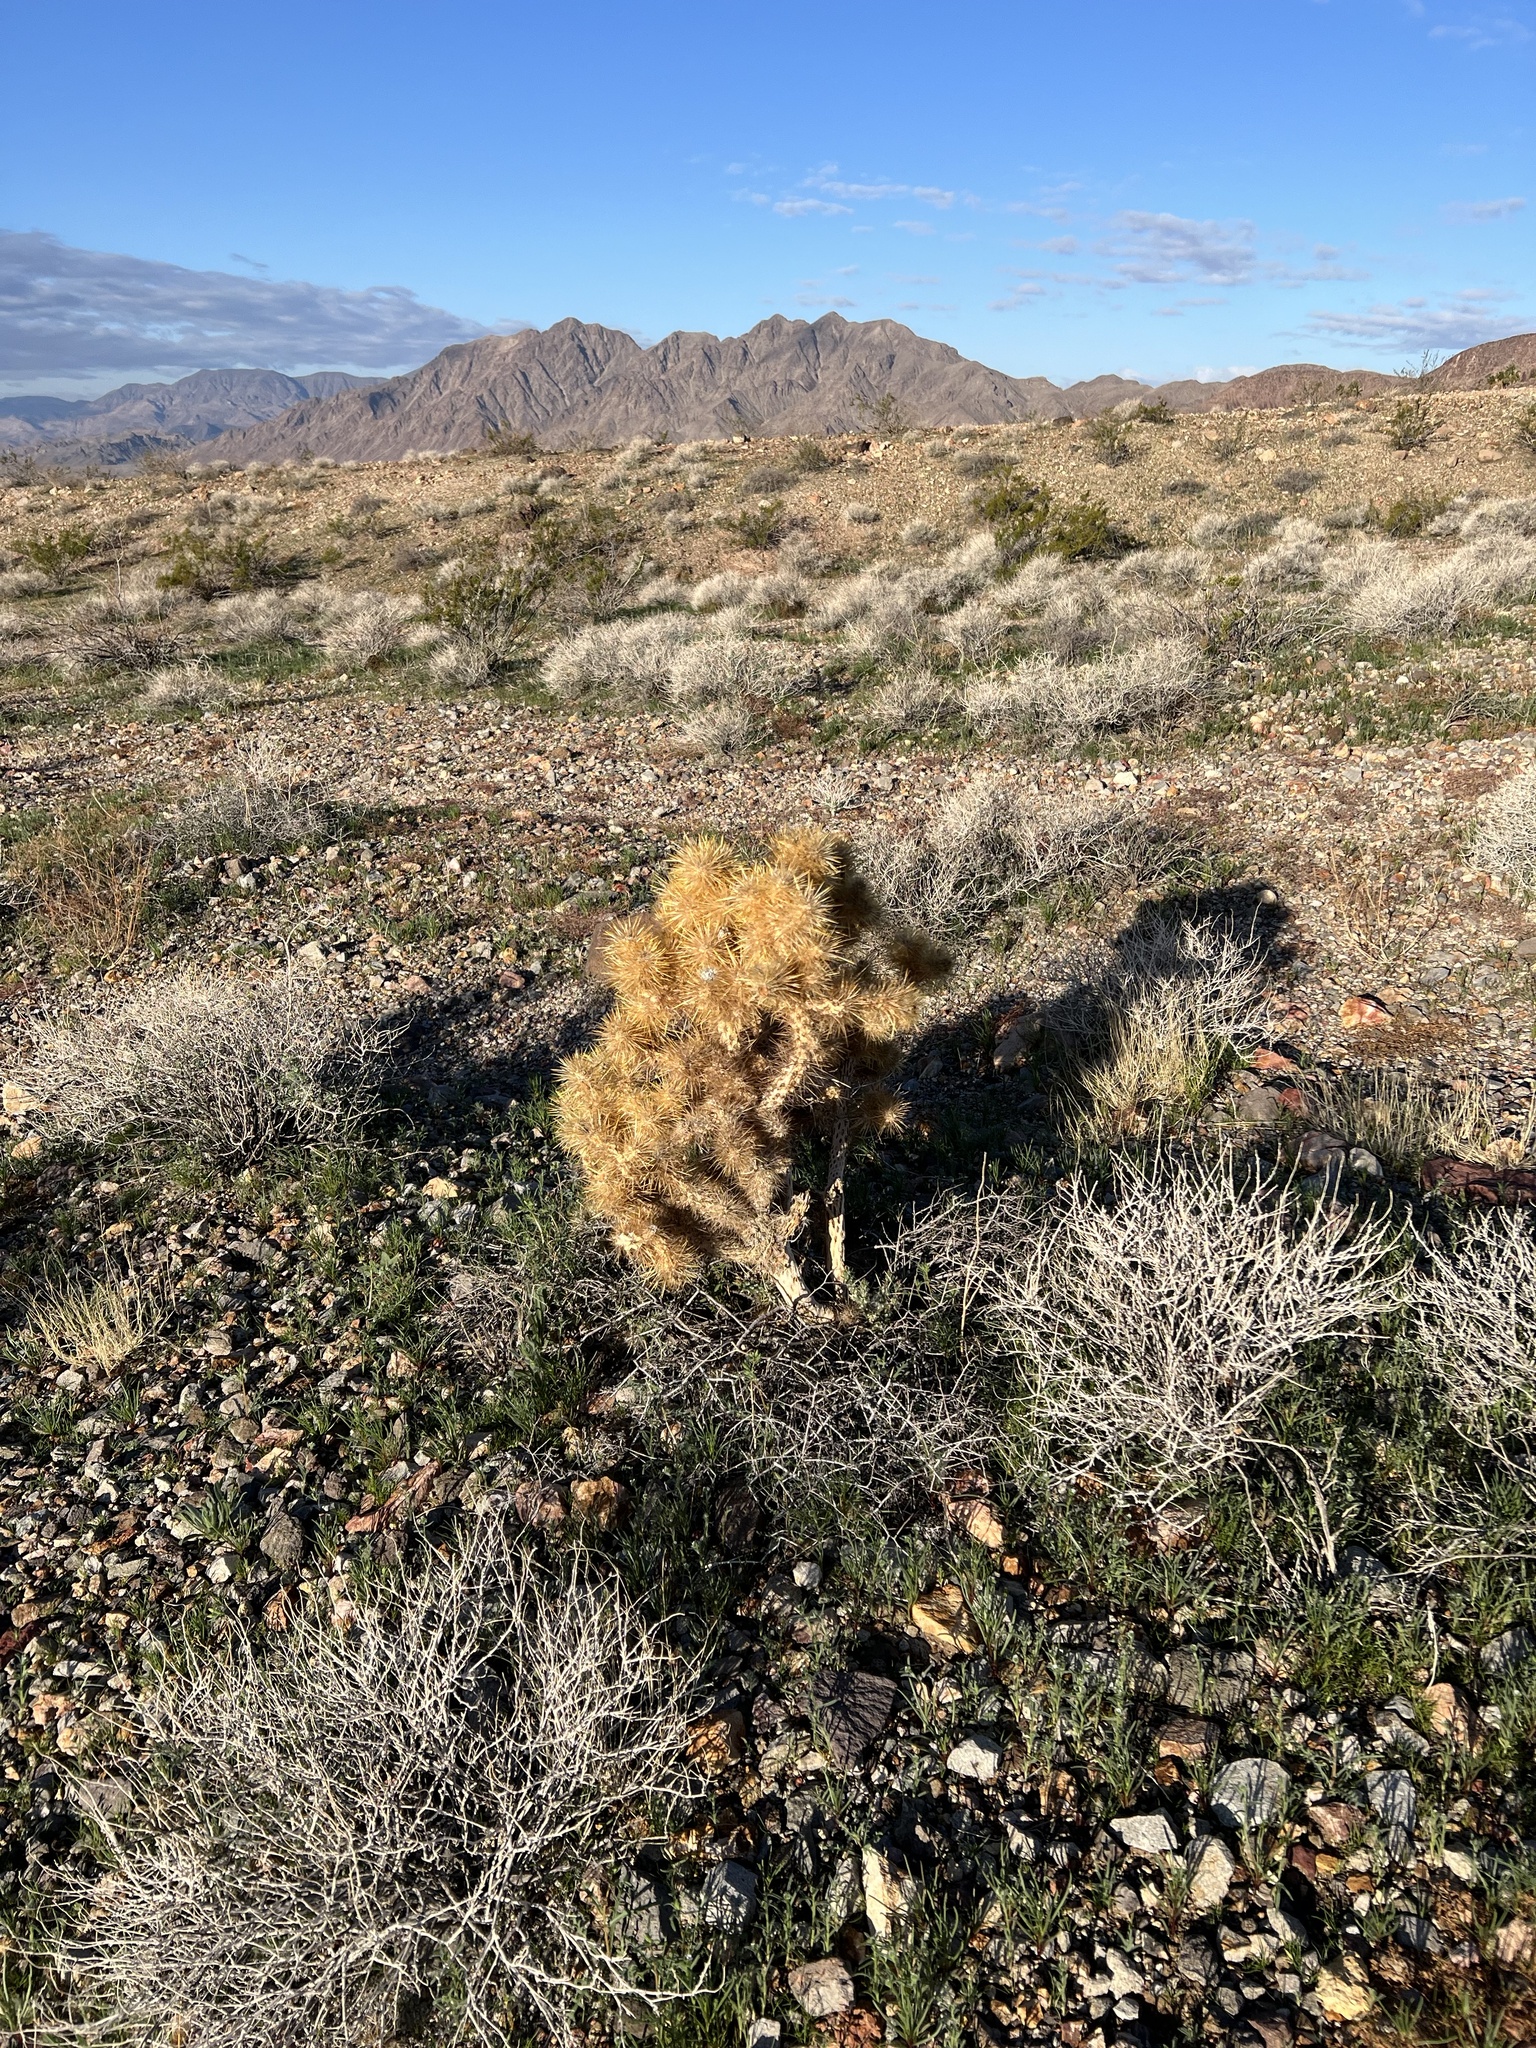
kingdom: Plantae
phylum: Tracheophyta
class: Magnoliopsida
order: Caryophyllales
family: Cactaceae
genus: Cylindropuntia
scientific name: Cylindropuntia echinocarpa
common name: Ground cholla
